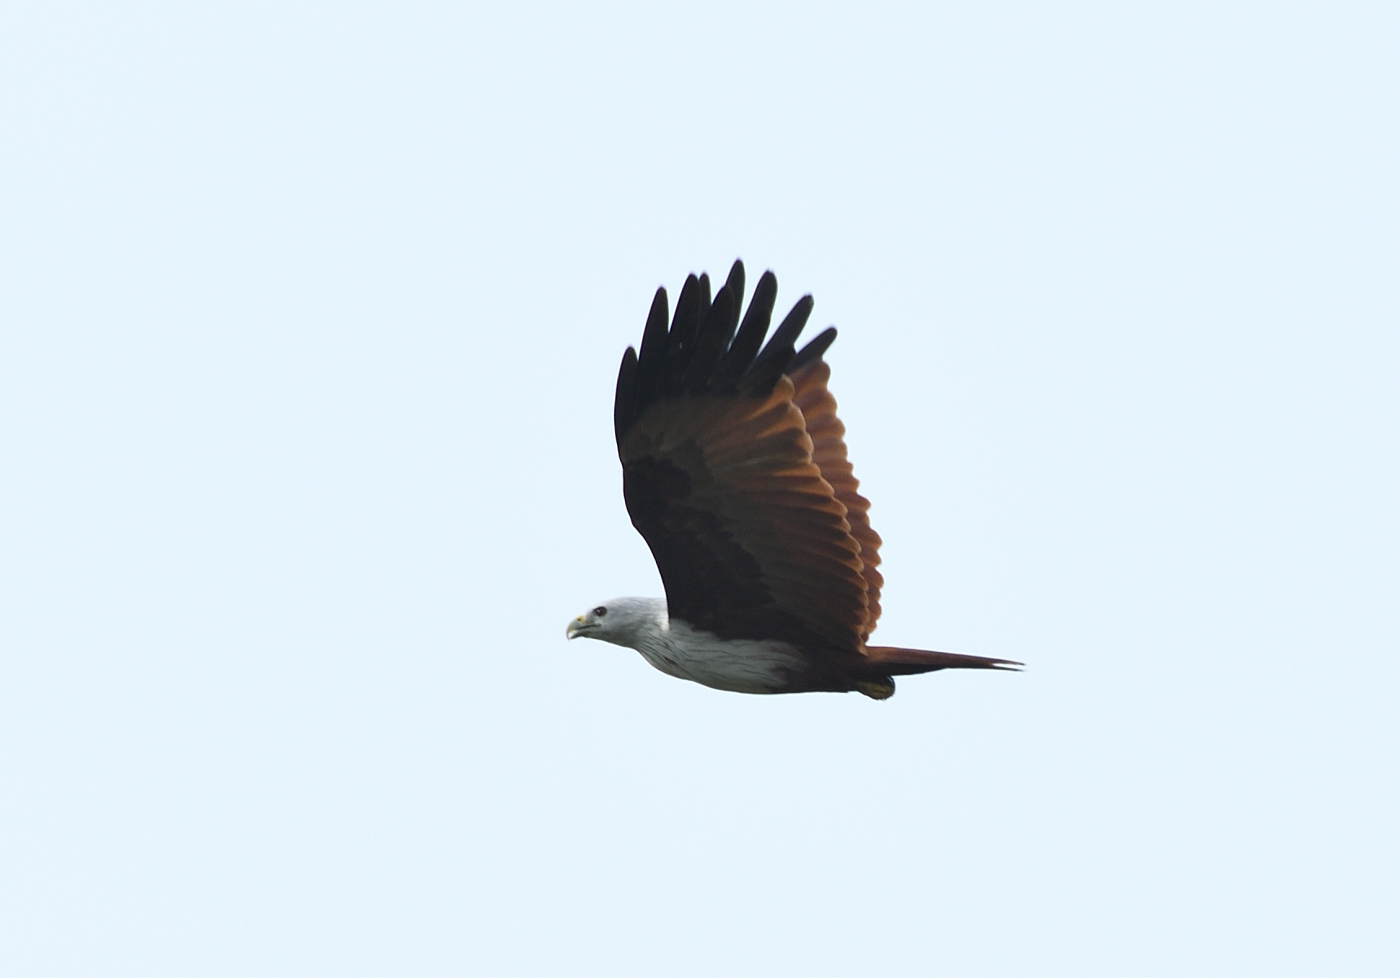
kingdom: Animalia
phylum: Chordata
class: Aves
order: Accipitriformes
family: Accipitridae
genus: Haliastur
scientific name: Haliastur indus
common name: Brahminy kite
